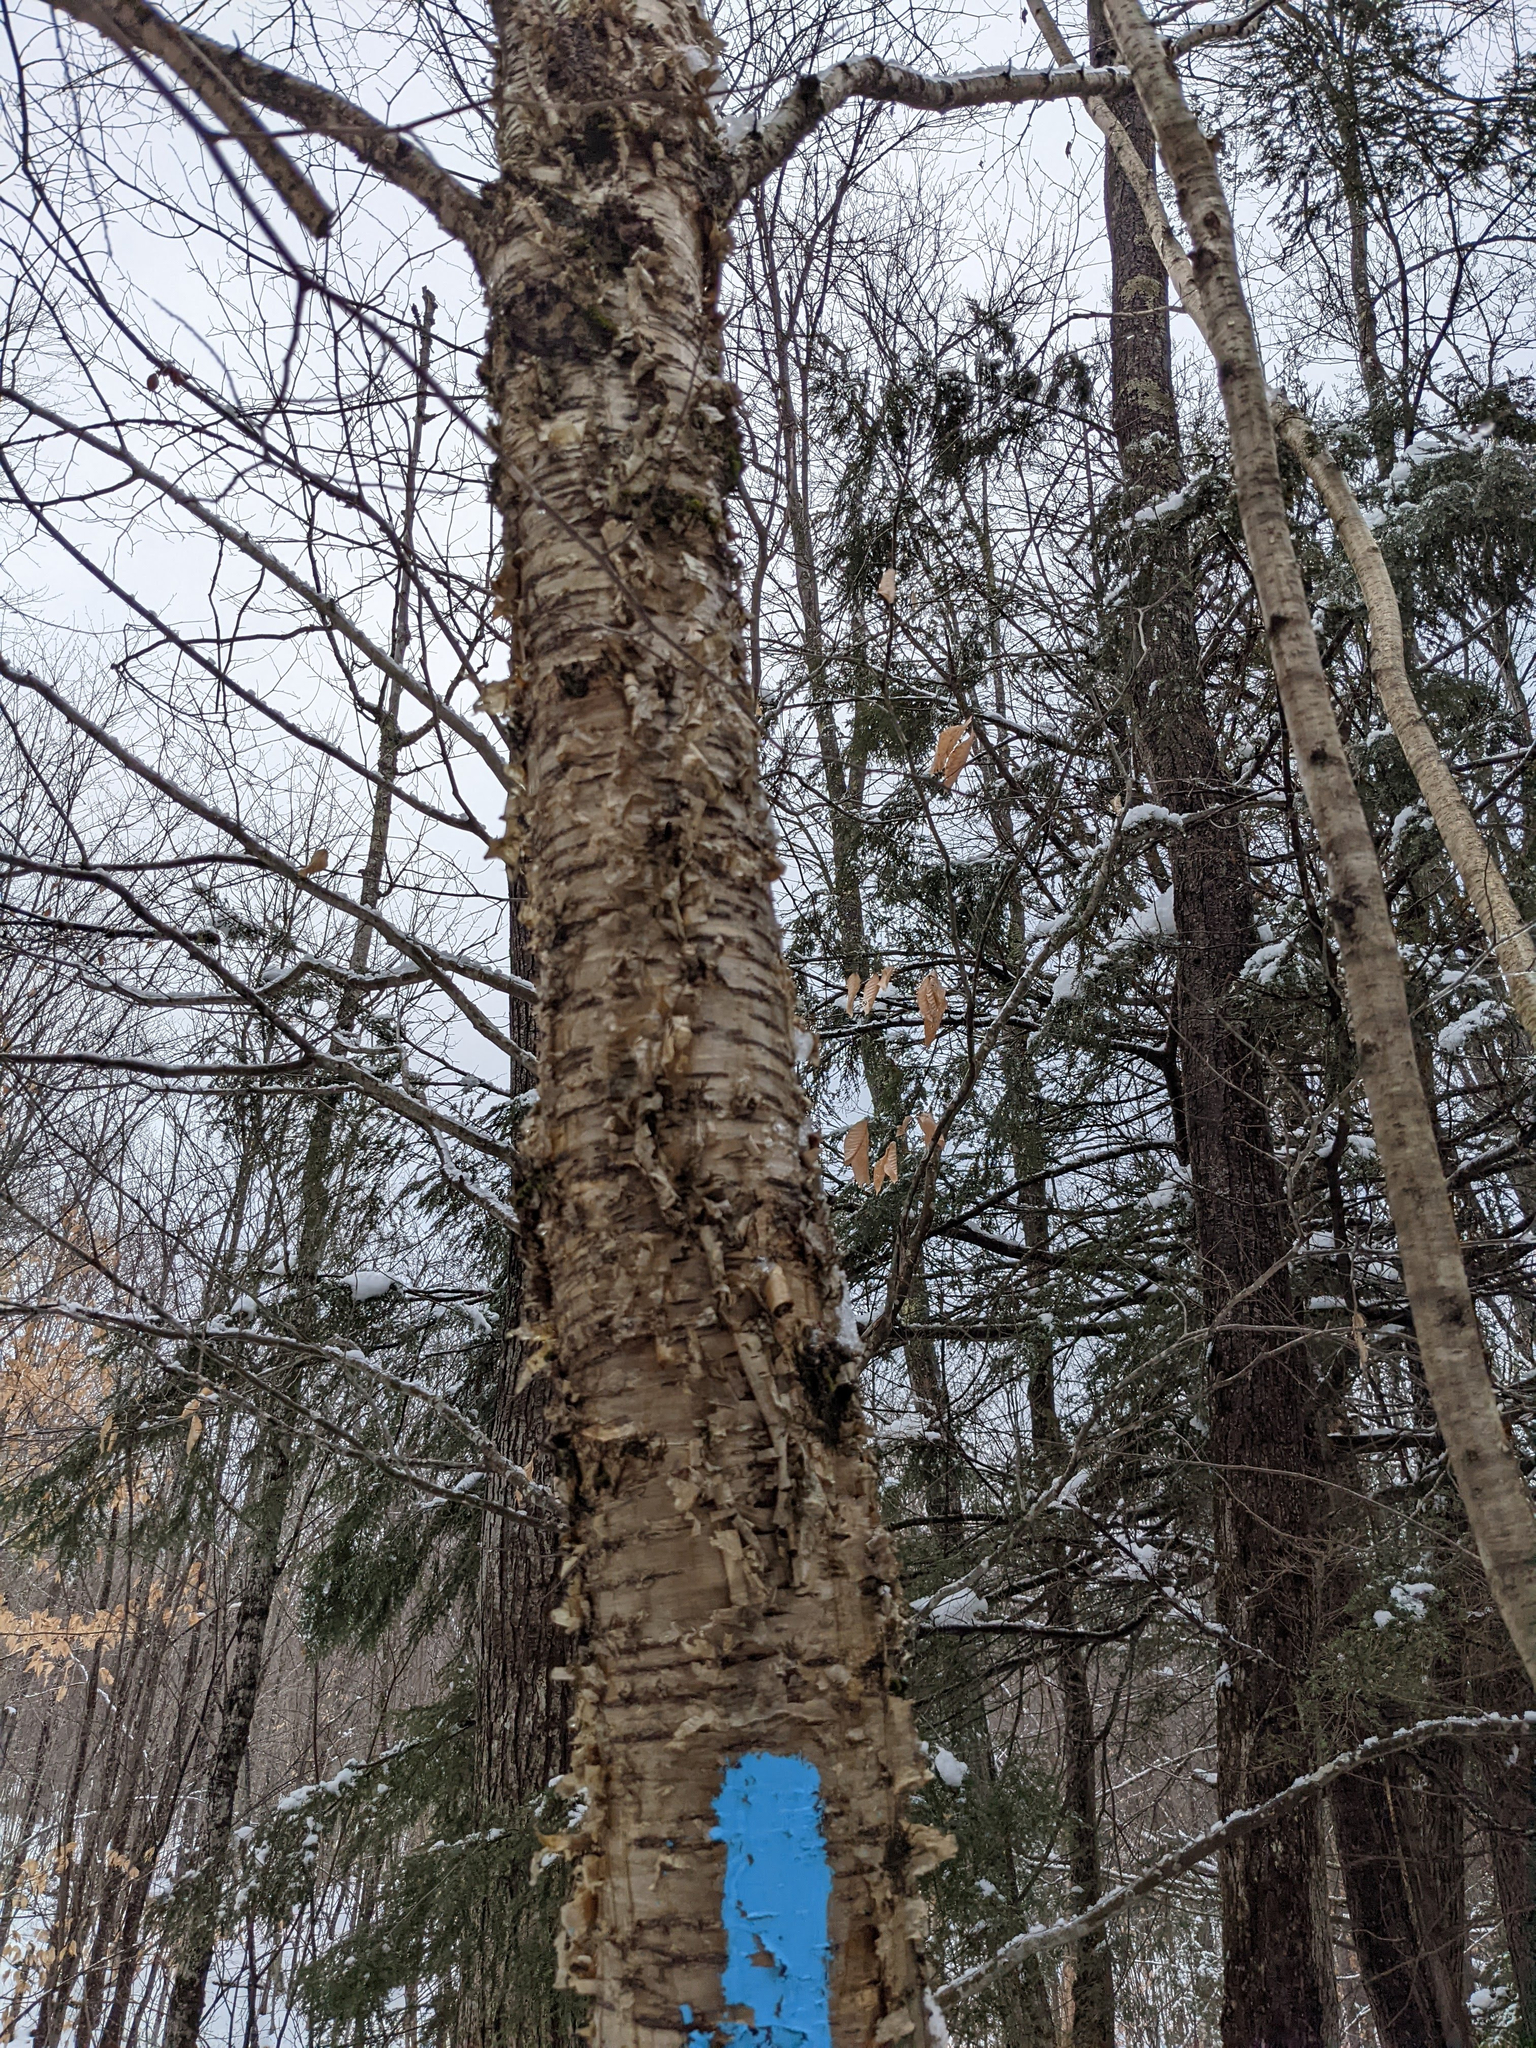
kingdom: Plantae
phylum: Tracheophyta
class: Magnoliopsida
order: Fagales
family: Betulaceae
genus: Betula
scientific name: Betula alleghaniensis
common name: Yellow birch
